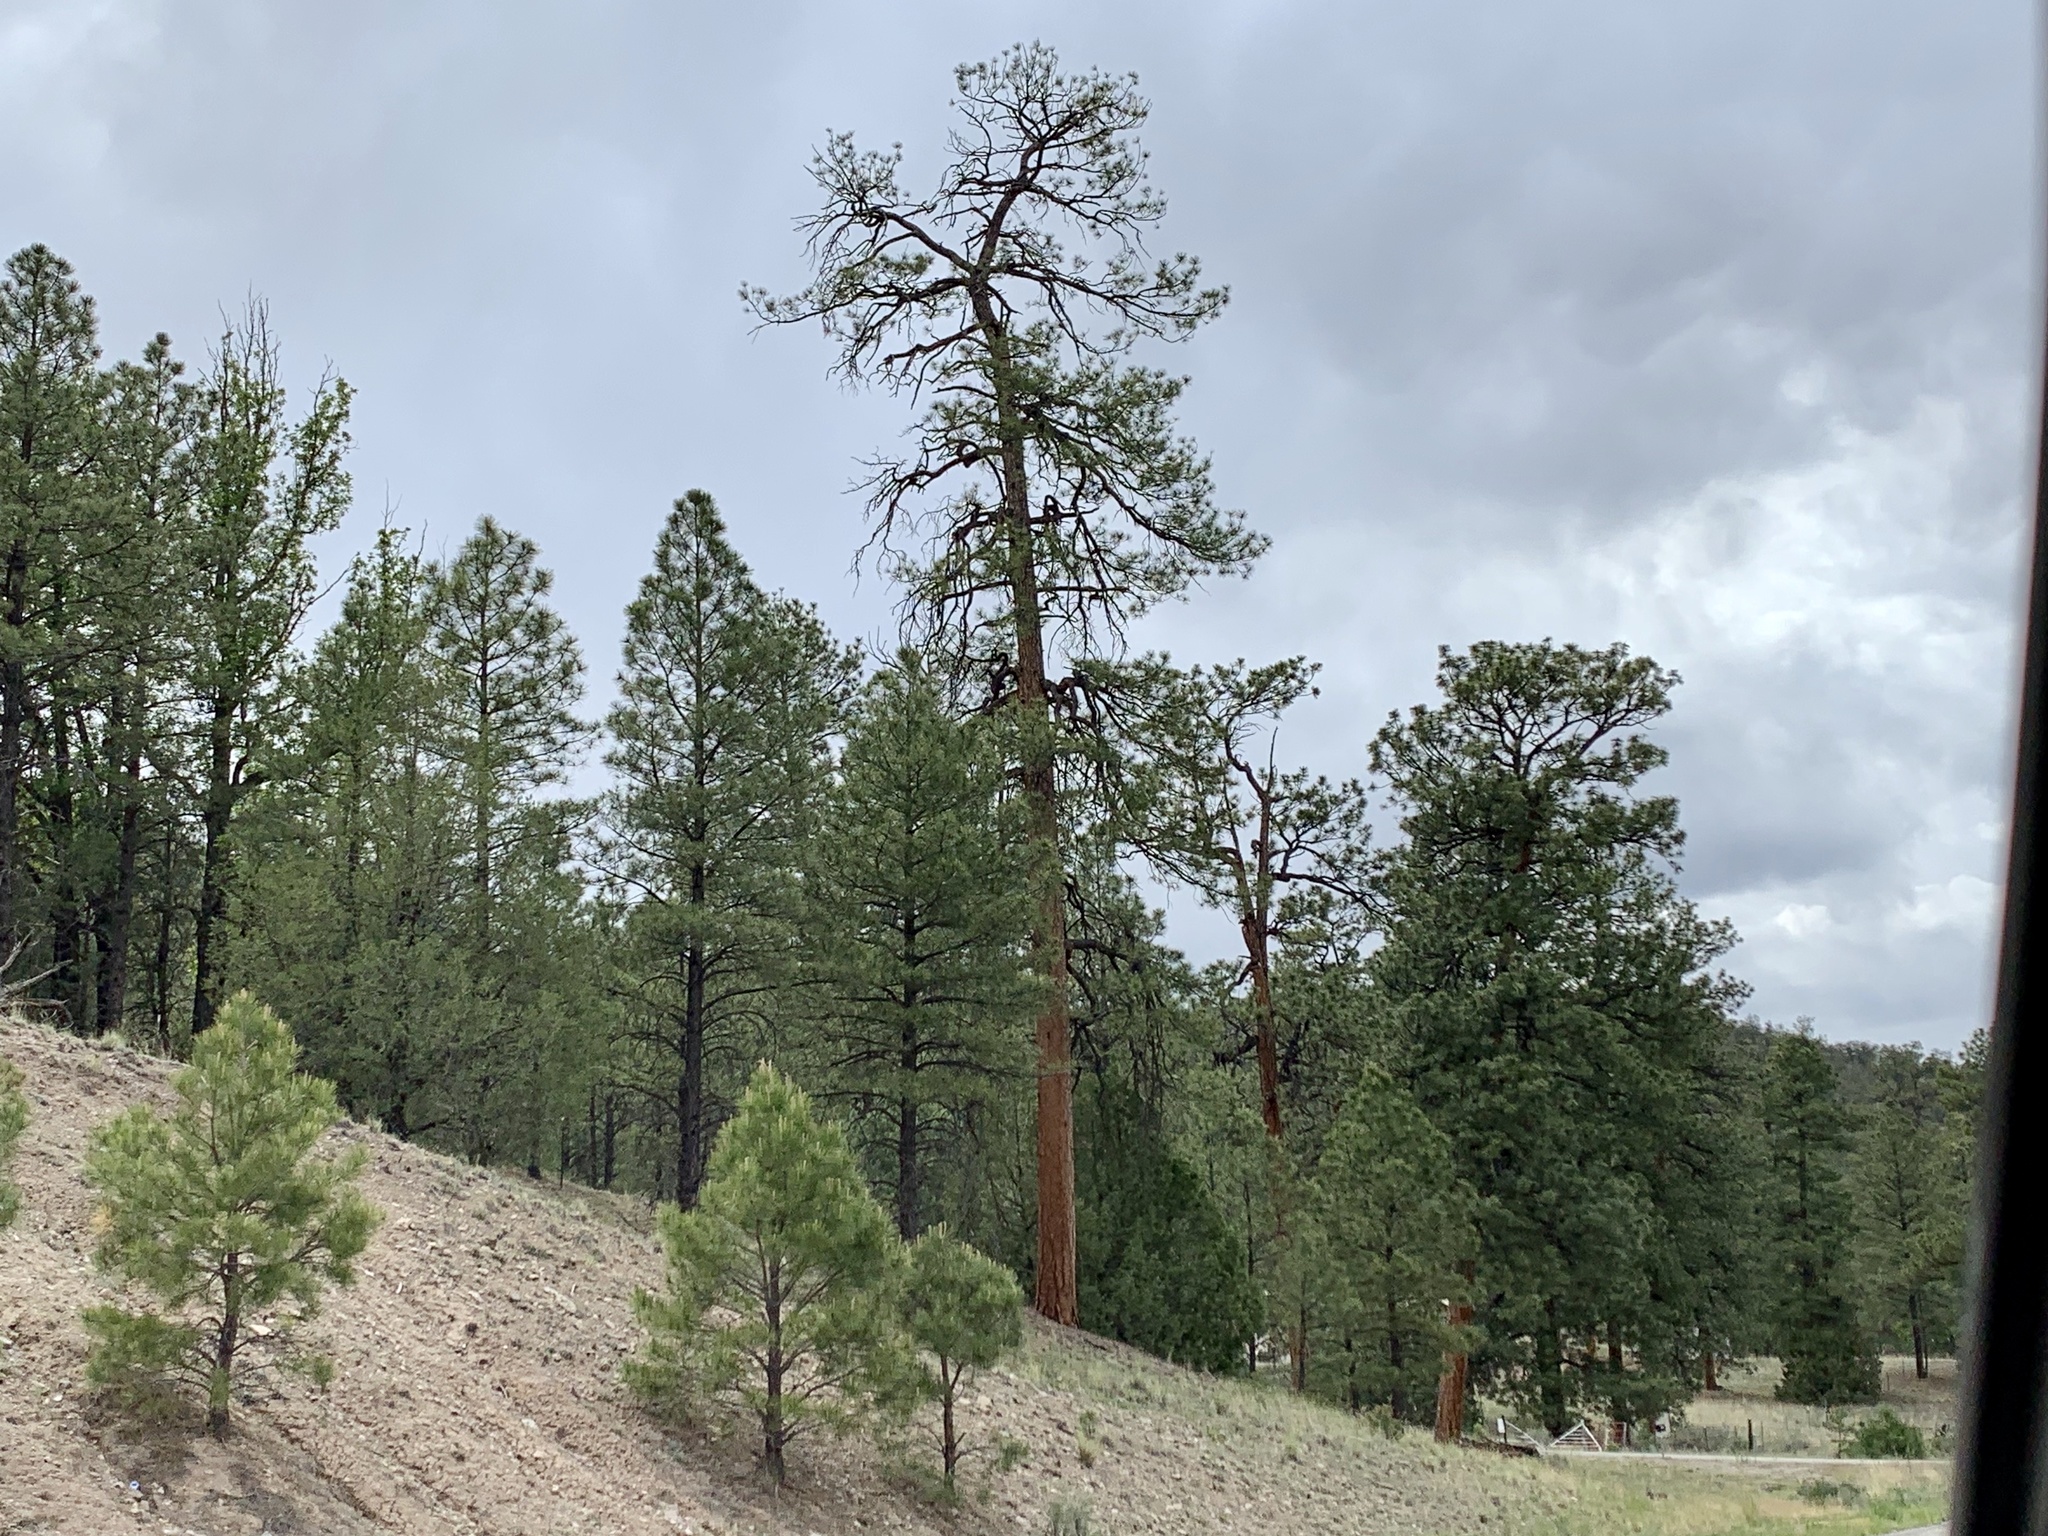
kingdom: Plantae
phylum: Tracheophyta
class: Pinopsida
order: Pinales
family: Pinaceae
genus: Pinus
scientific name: Pinus ponderosa
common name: Western yellow-pine
